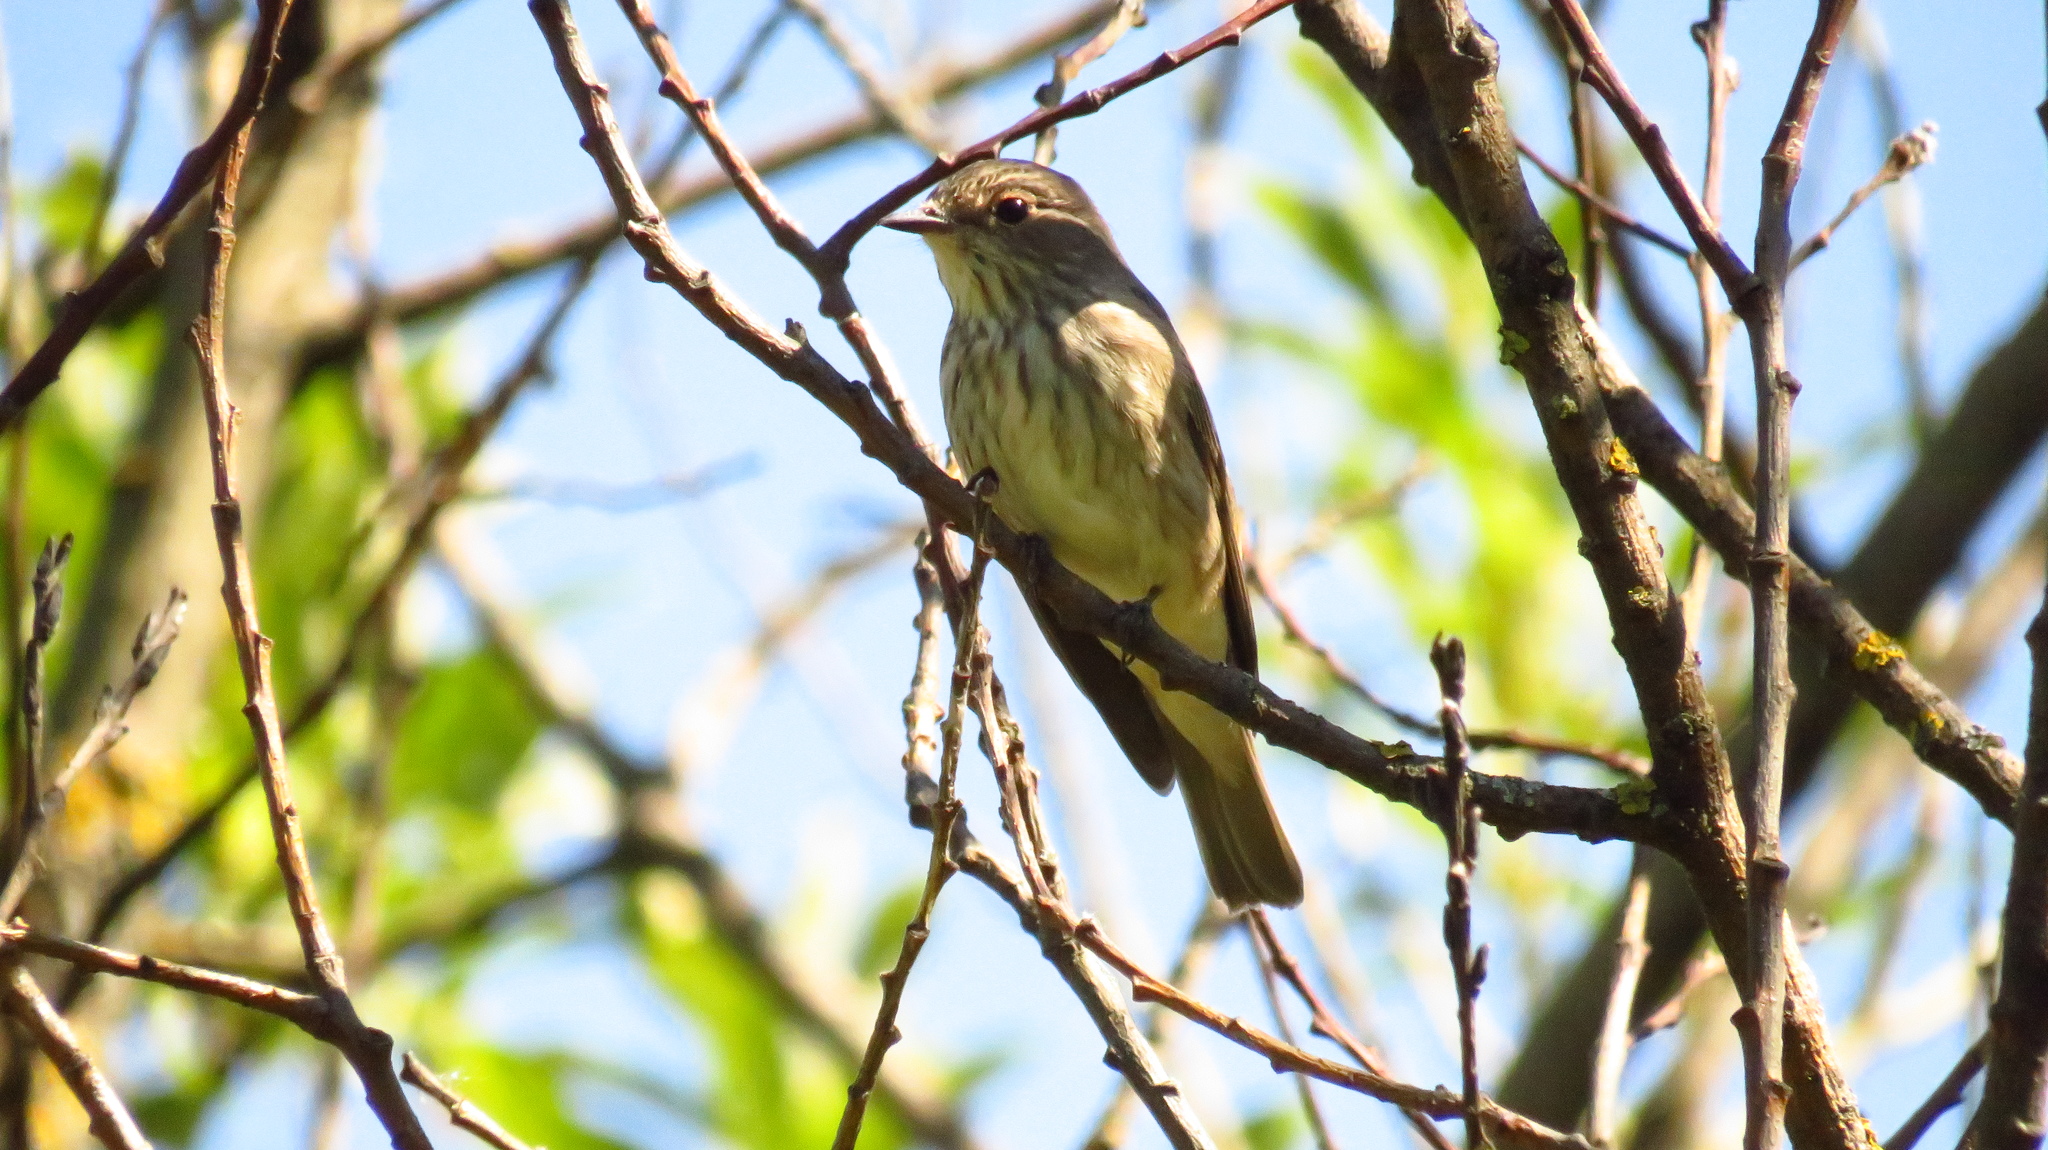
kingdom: Animalia
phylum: Chordata
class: Aves
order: Passeriformes
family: Muscicapidae
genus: Muscicapa
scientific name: Muscicapa striata
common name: Spotted flycatcher
